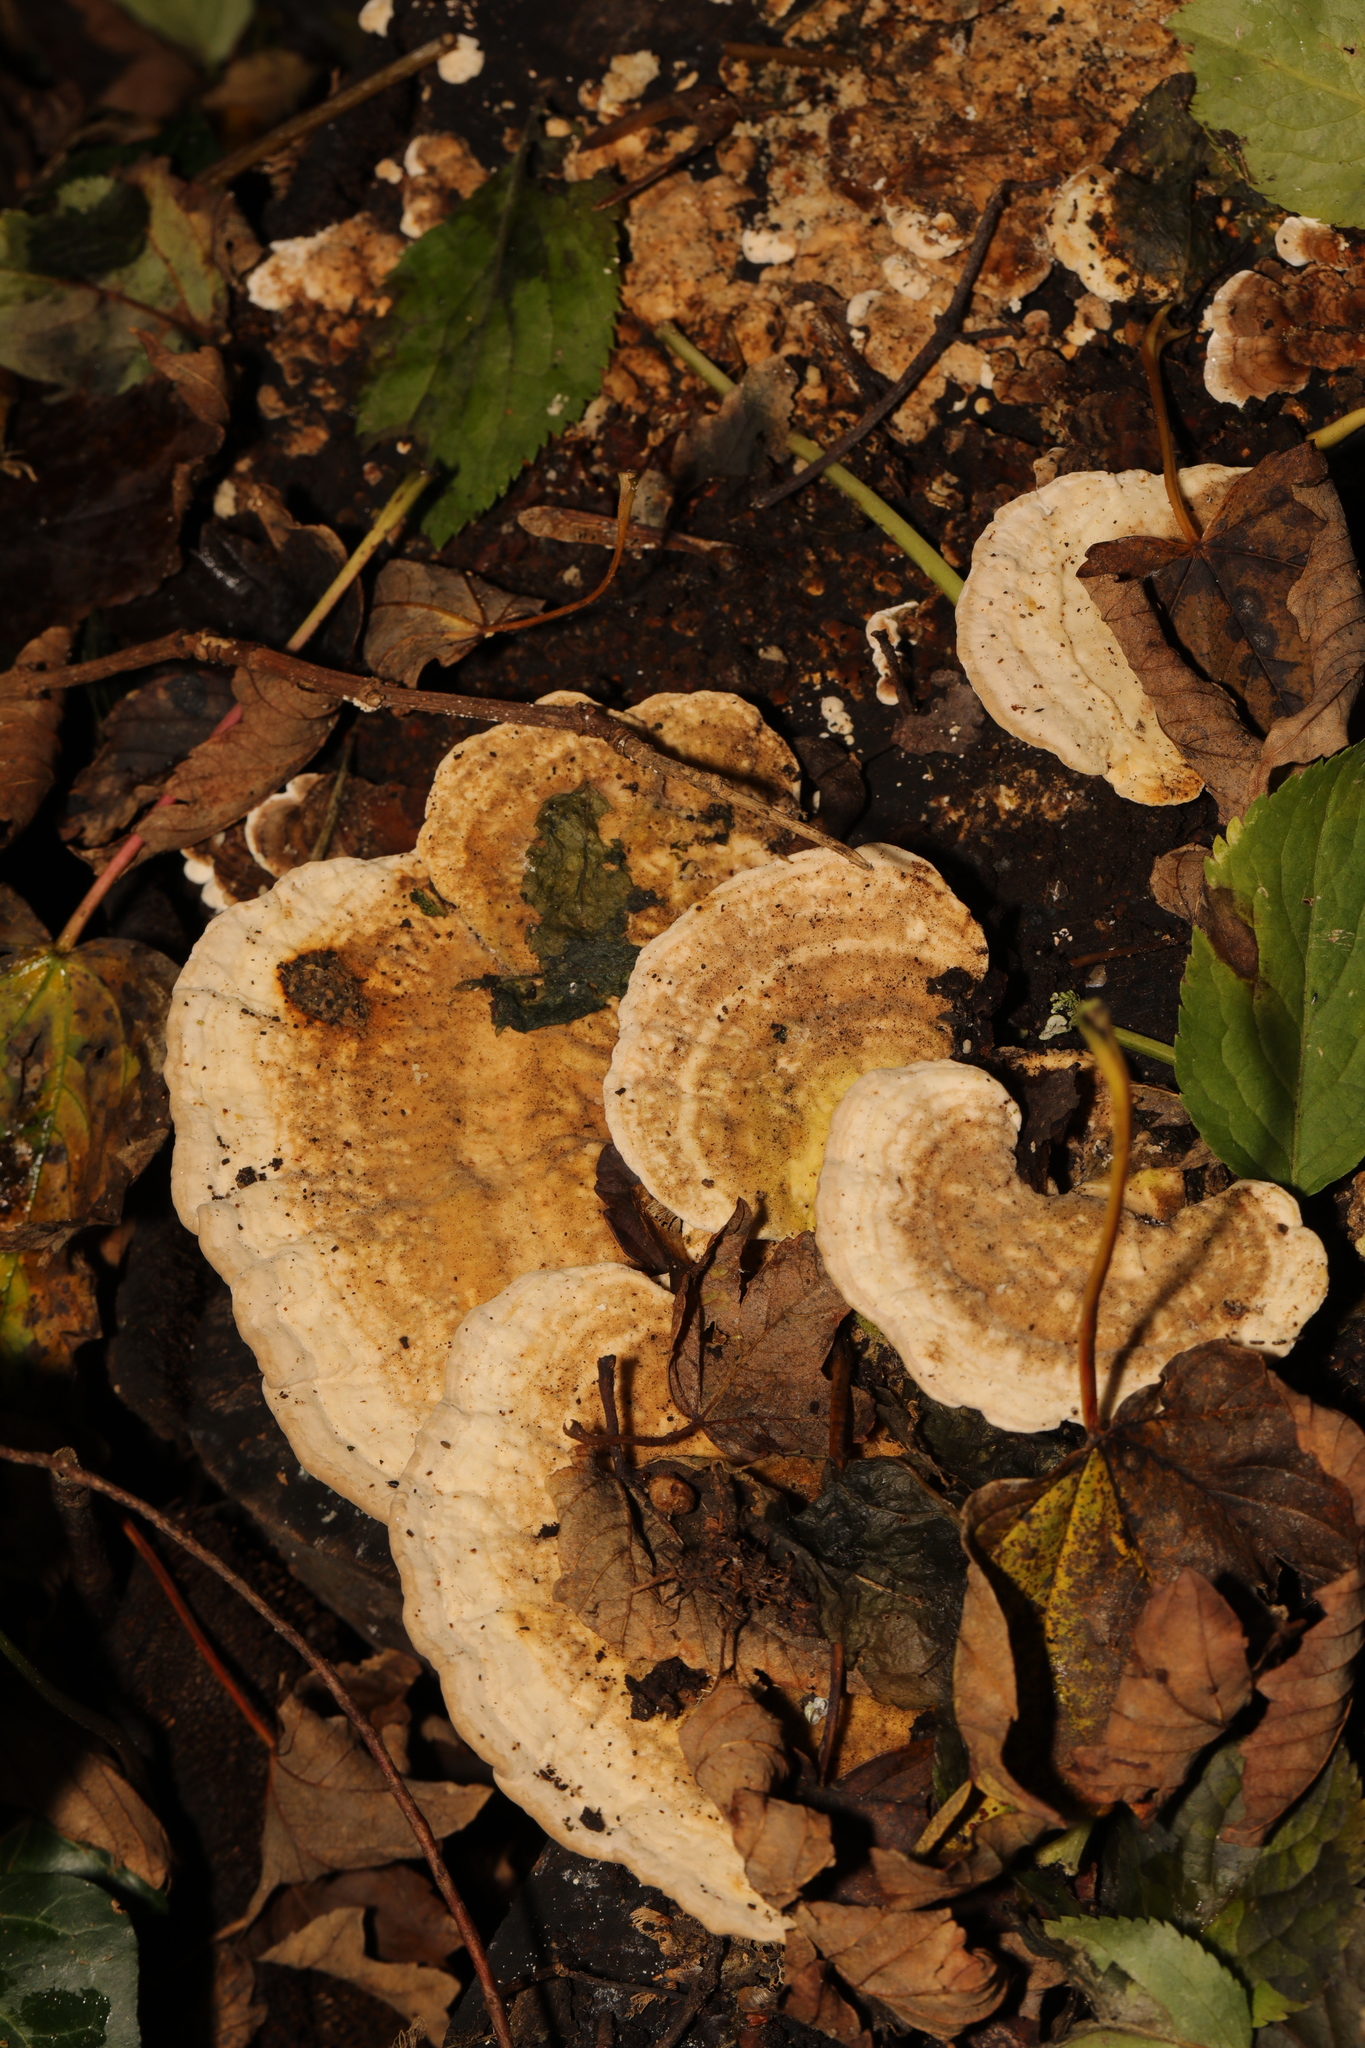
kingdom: Fungi
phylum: Basidiomycota
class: Agaricomycetes
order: Polyporales
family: Polyporaceae
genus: Trametes
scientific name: Trametes gibbosa
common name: Lumpy bracket
